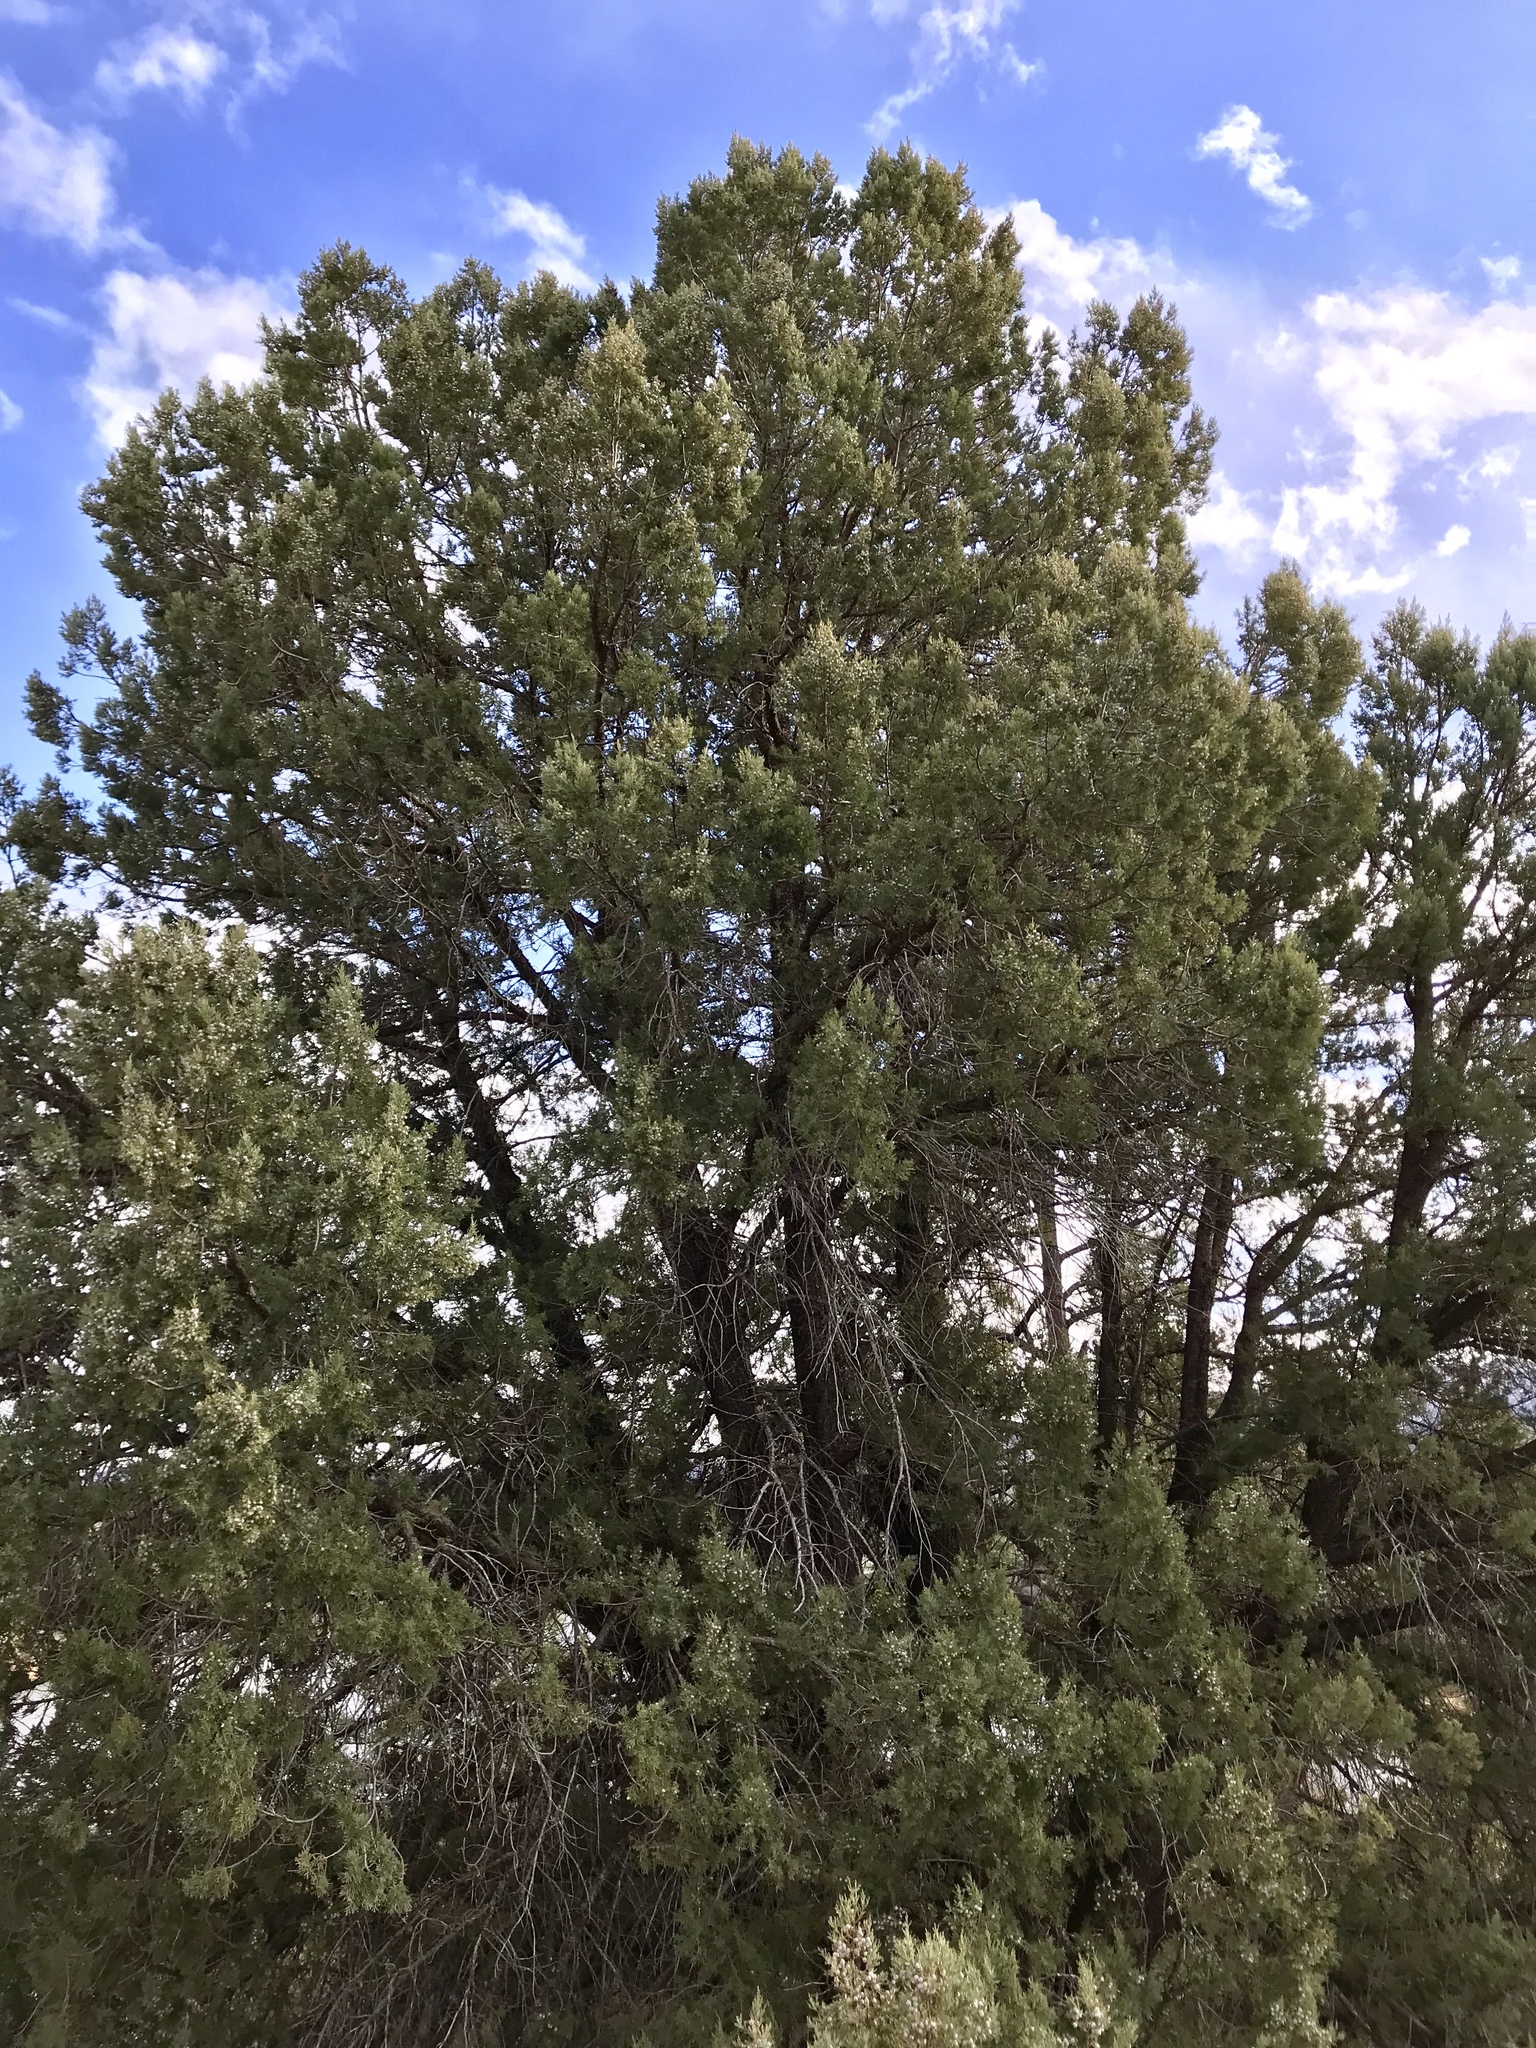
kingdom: Plantae
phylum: Tracheophyta
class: Pinopsida
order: Pinales
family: Cupressaceae
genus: Juniperus
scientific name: Juniperus deppeana
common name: Alligator juniper
